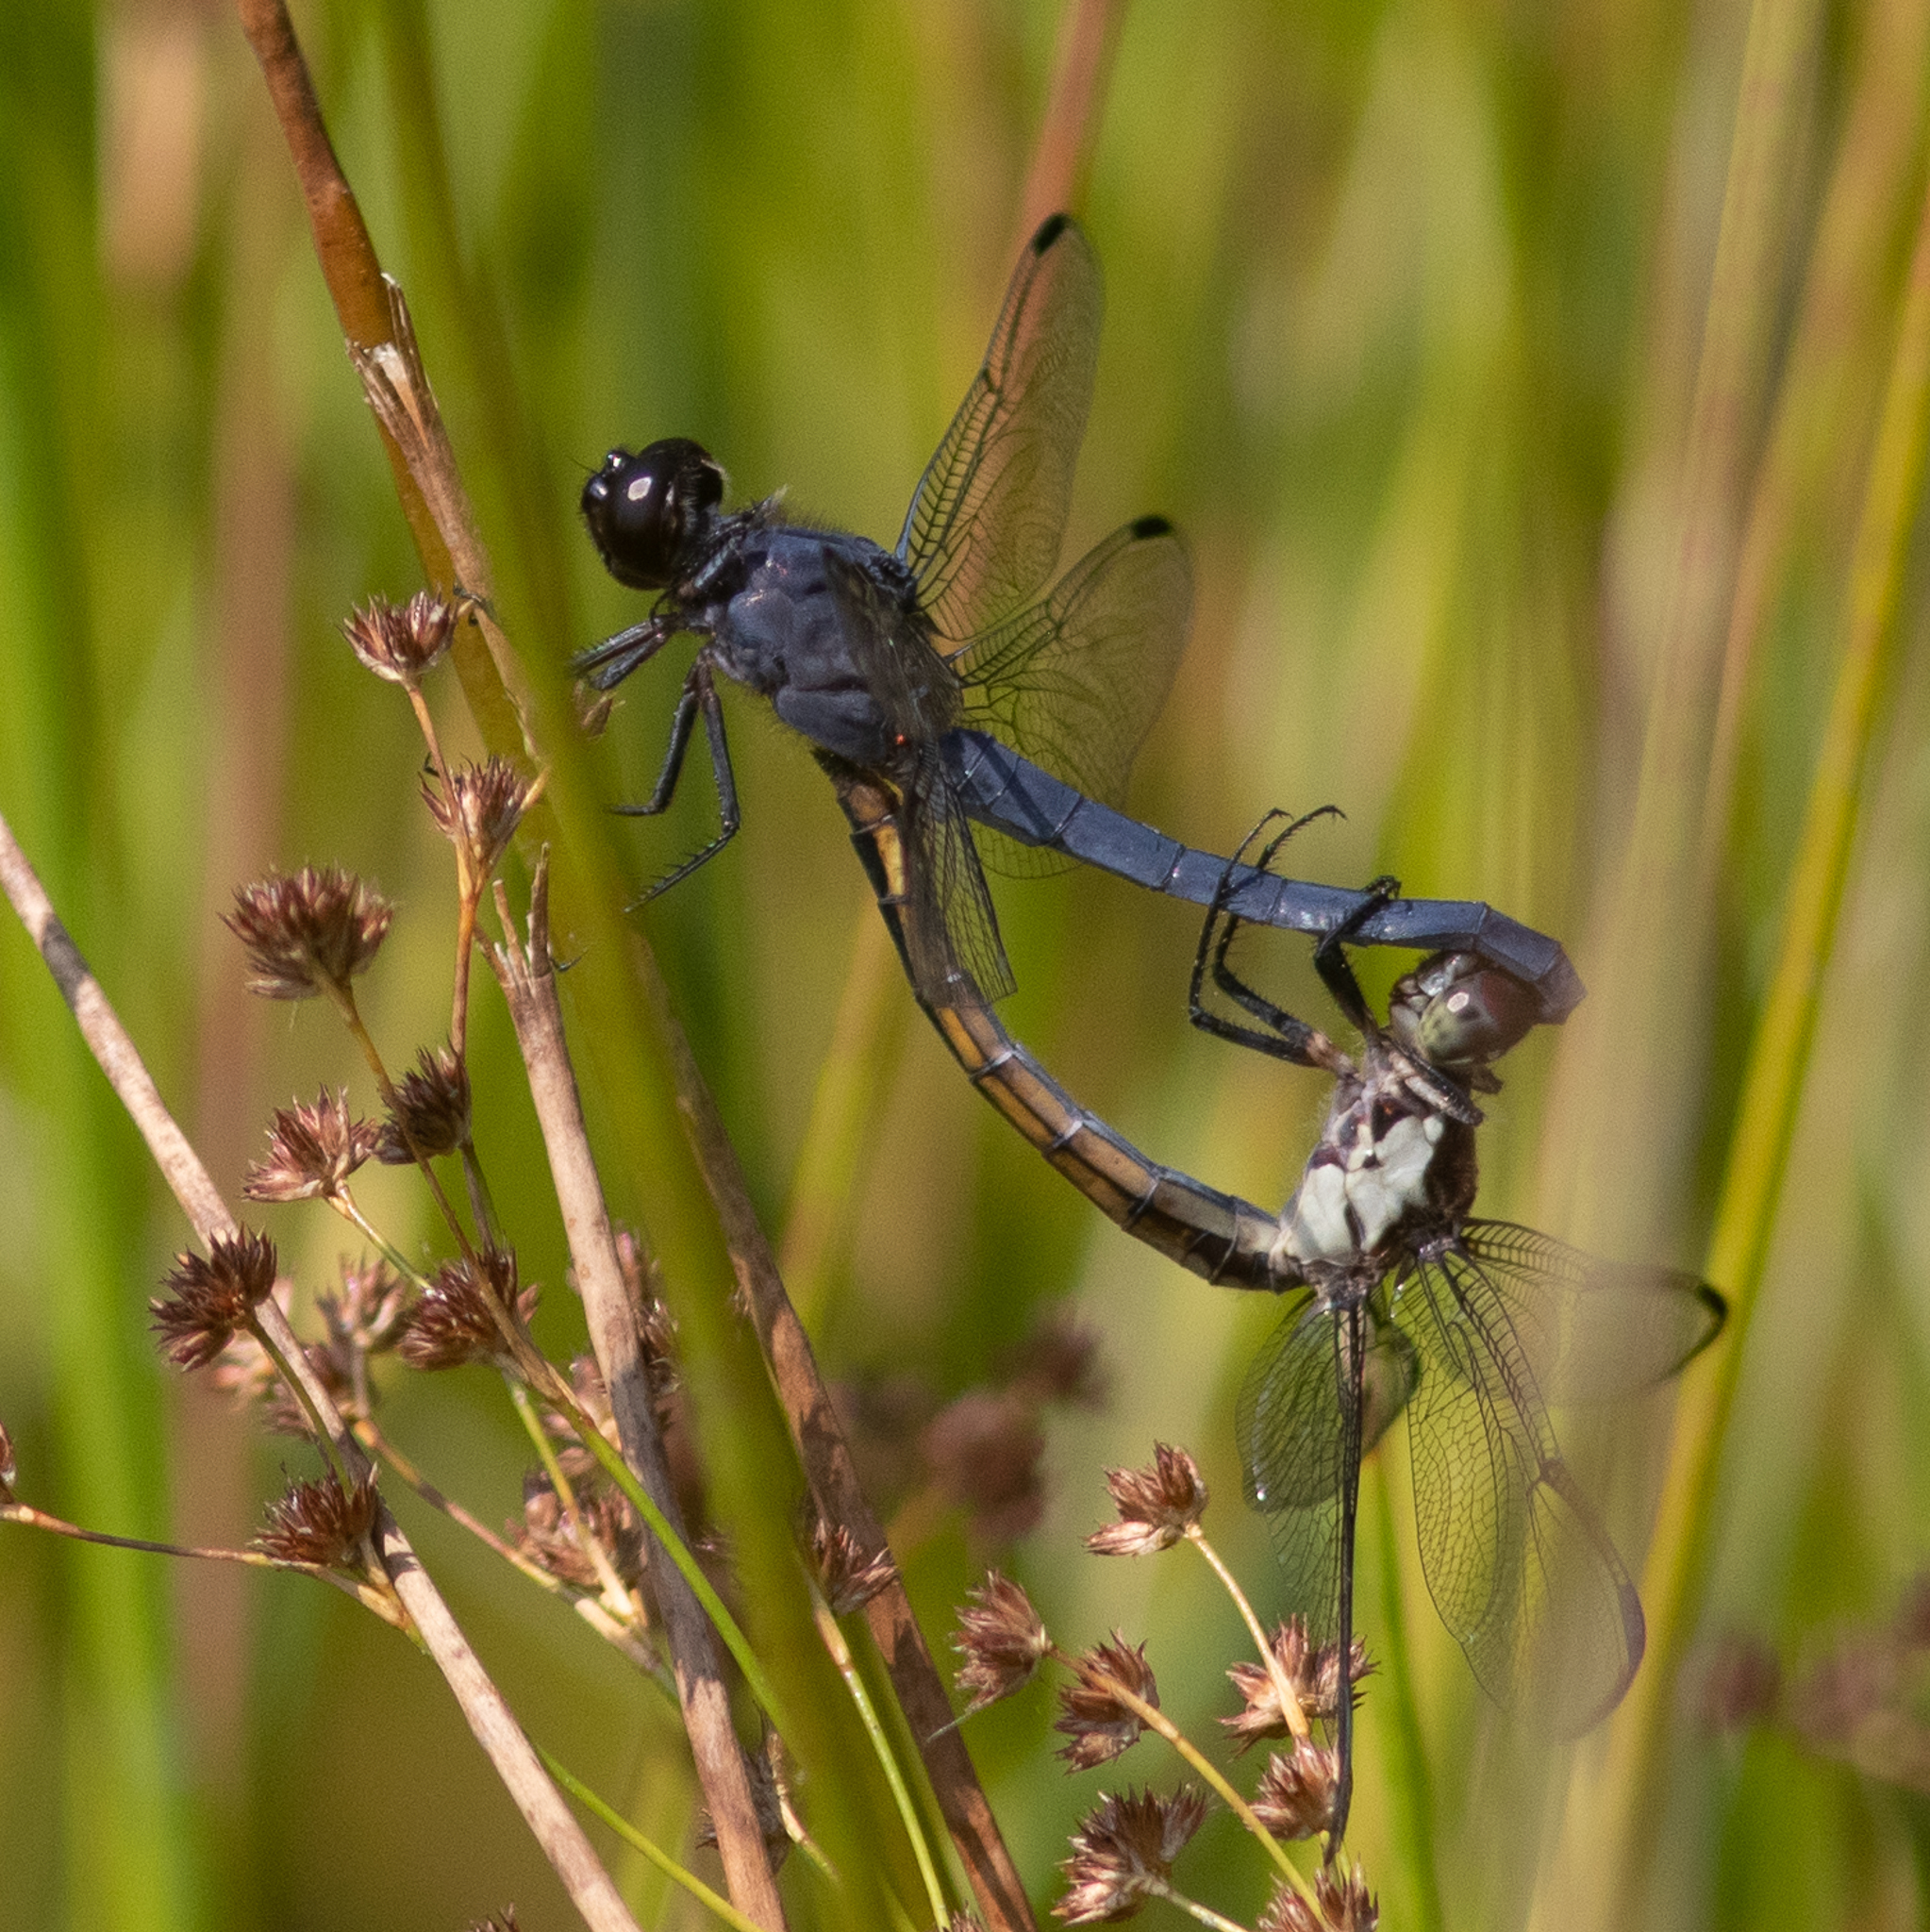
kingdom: Animalia
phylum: Arthropoda
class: Insecta
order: Odonata
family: Libellulidae
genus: Libellula
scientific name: Libellula incesta
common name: Slaty skimmer
